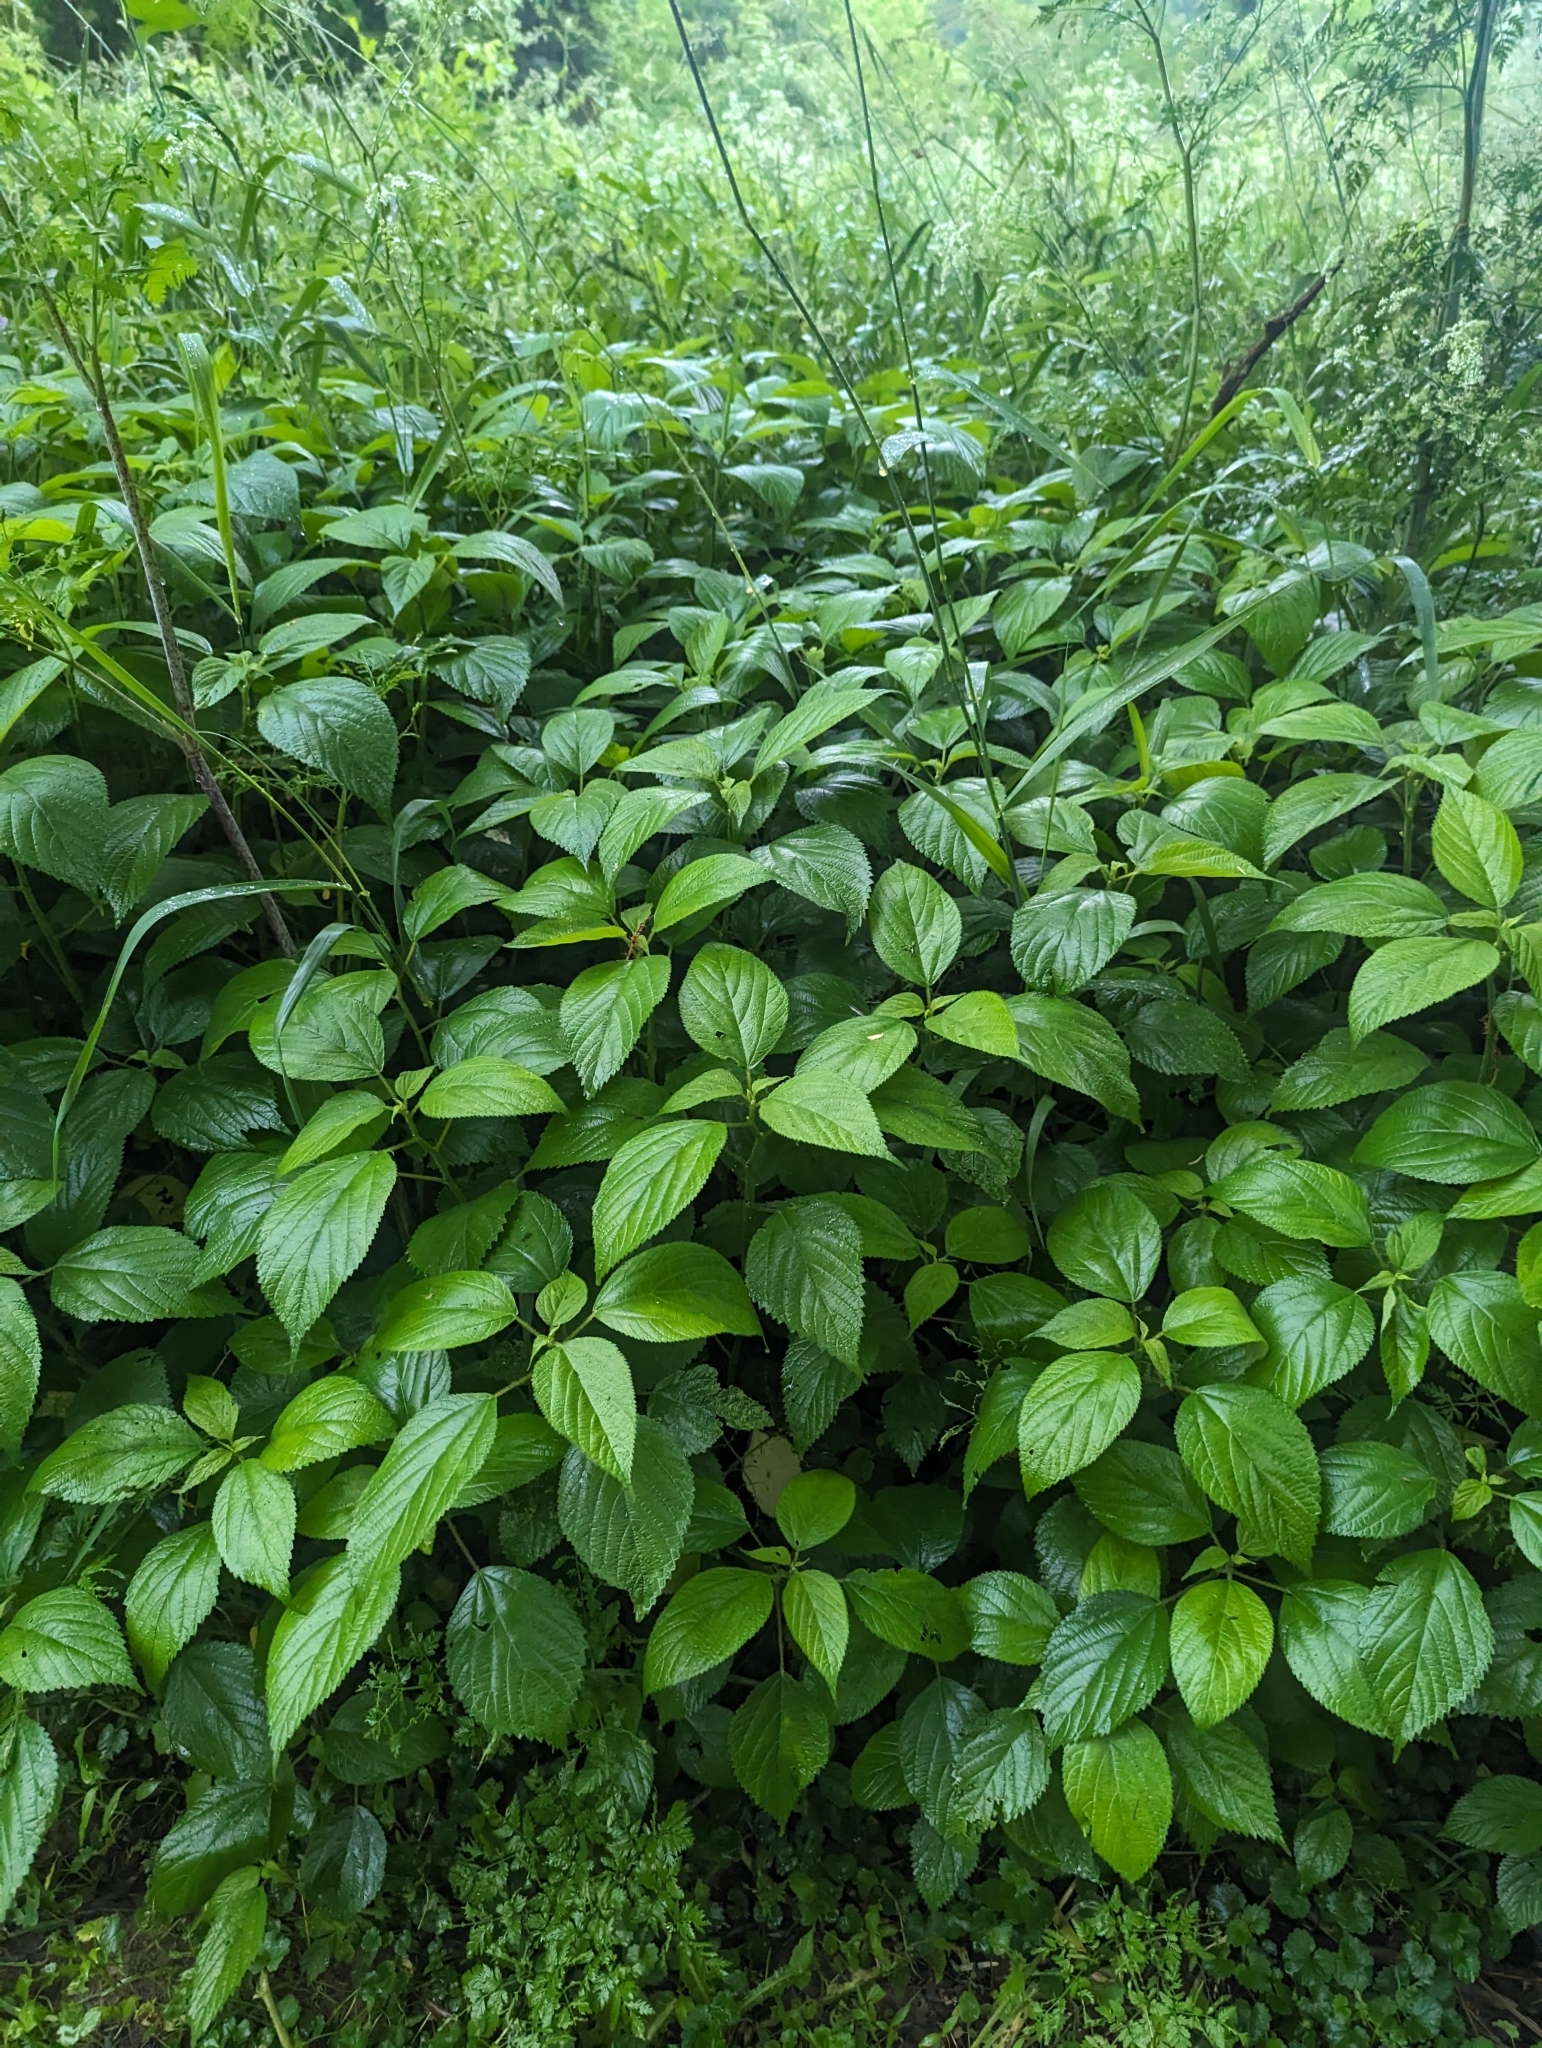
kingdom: Plantae
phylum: Tracheophyta
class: Magnoliopsida
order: Rosales
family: Urticaceae
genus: Laportea
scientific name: Laportea canadensis
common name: Canada nettle
